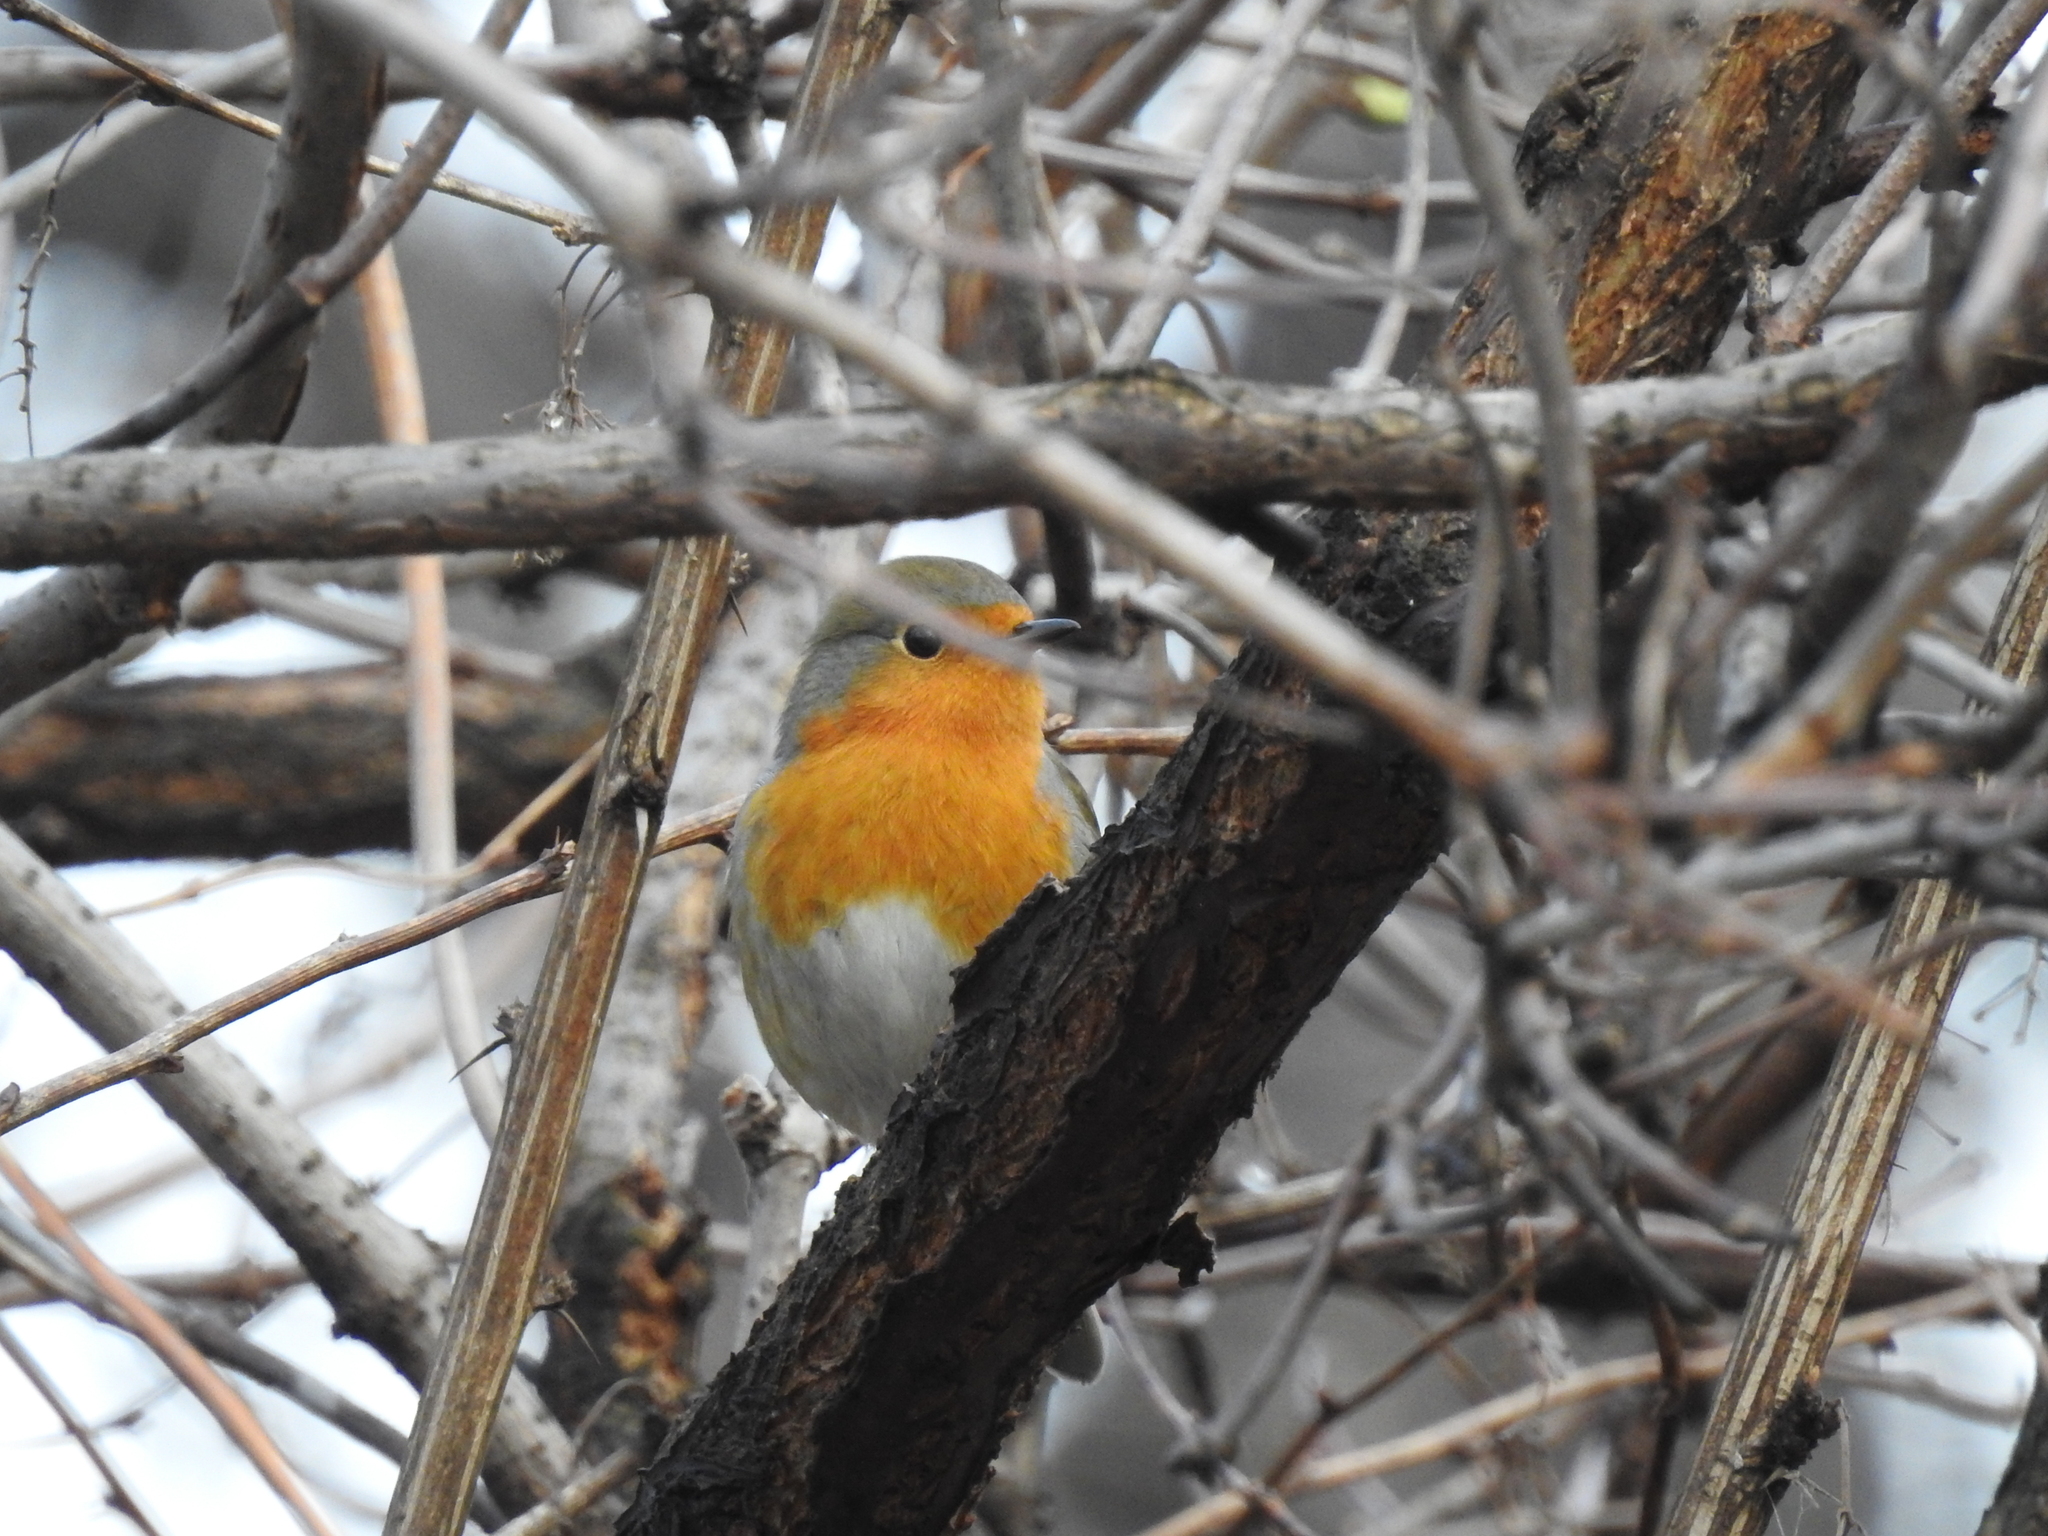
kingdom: Animalia
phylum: Chordata
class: Aves
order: Passeriformes
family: Muscicapidae
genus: Erithacus
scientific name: Erithacus rubecula
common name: European robin
